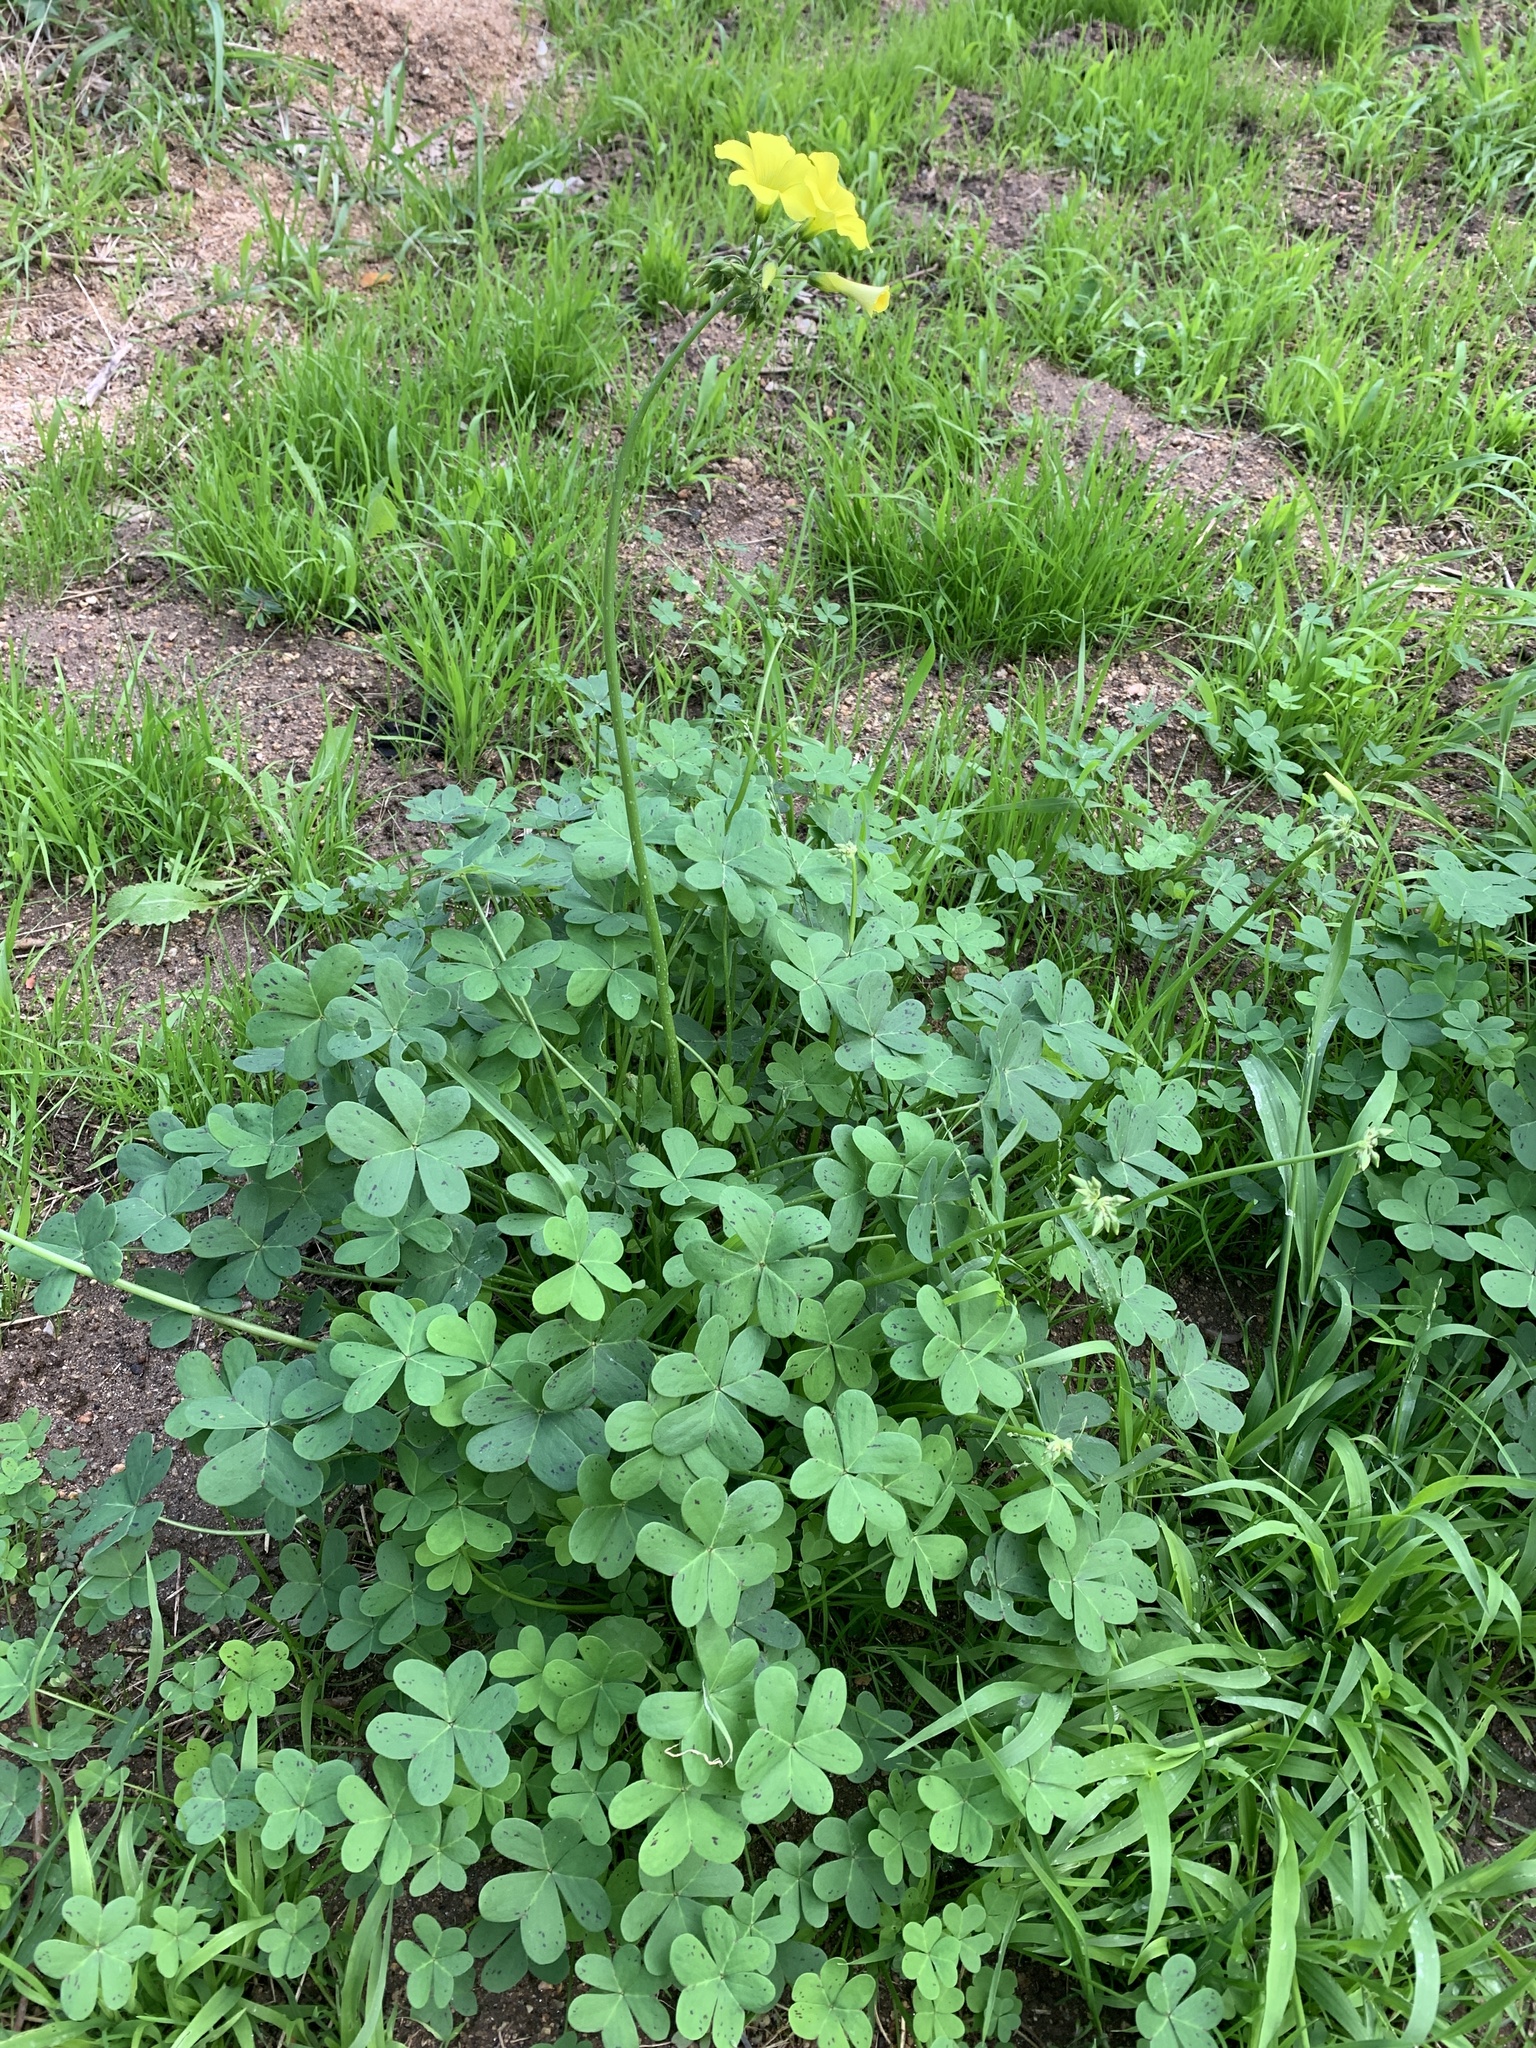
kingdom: Plantae
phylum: Tracheophyta
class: Magnoliopsida
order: Oxalidales
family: Oxalidaceae
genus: Oxalis
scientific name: Oxalis pes-caprae
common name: Bermuda-buttercup
